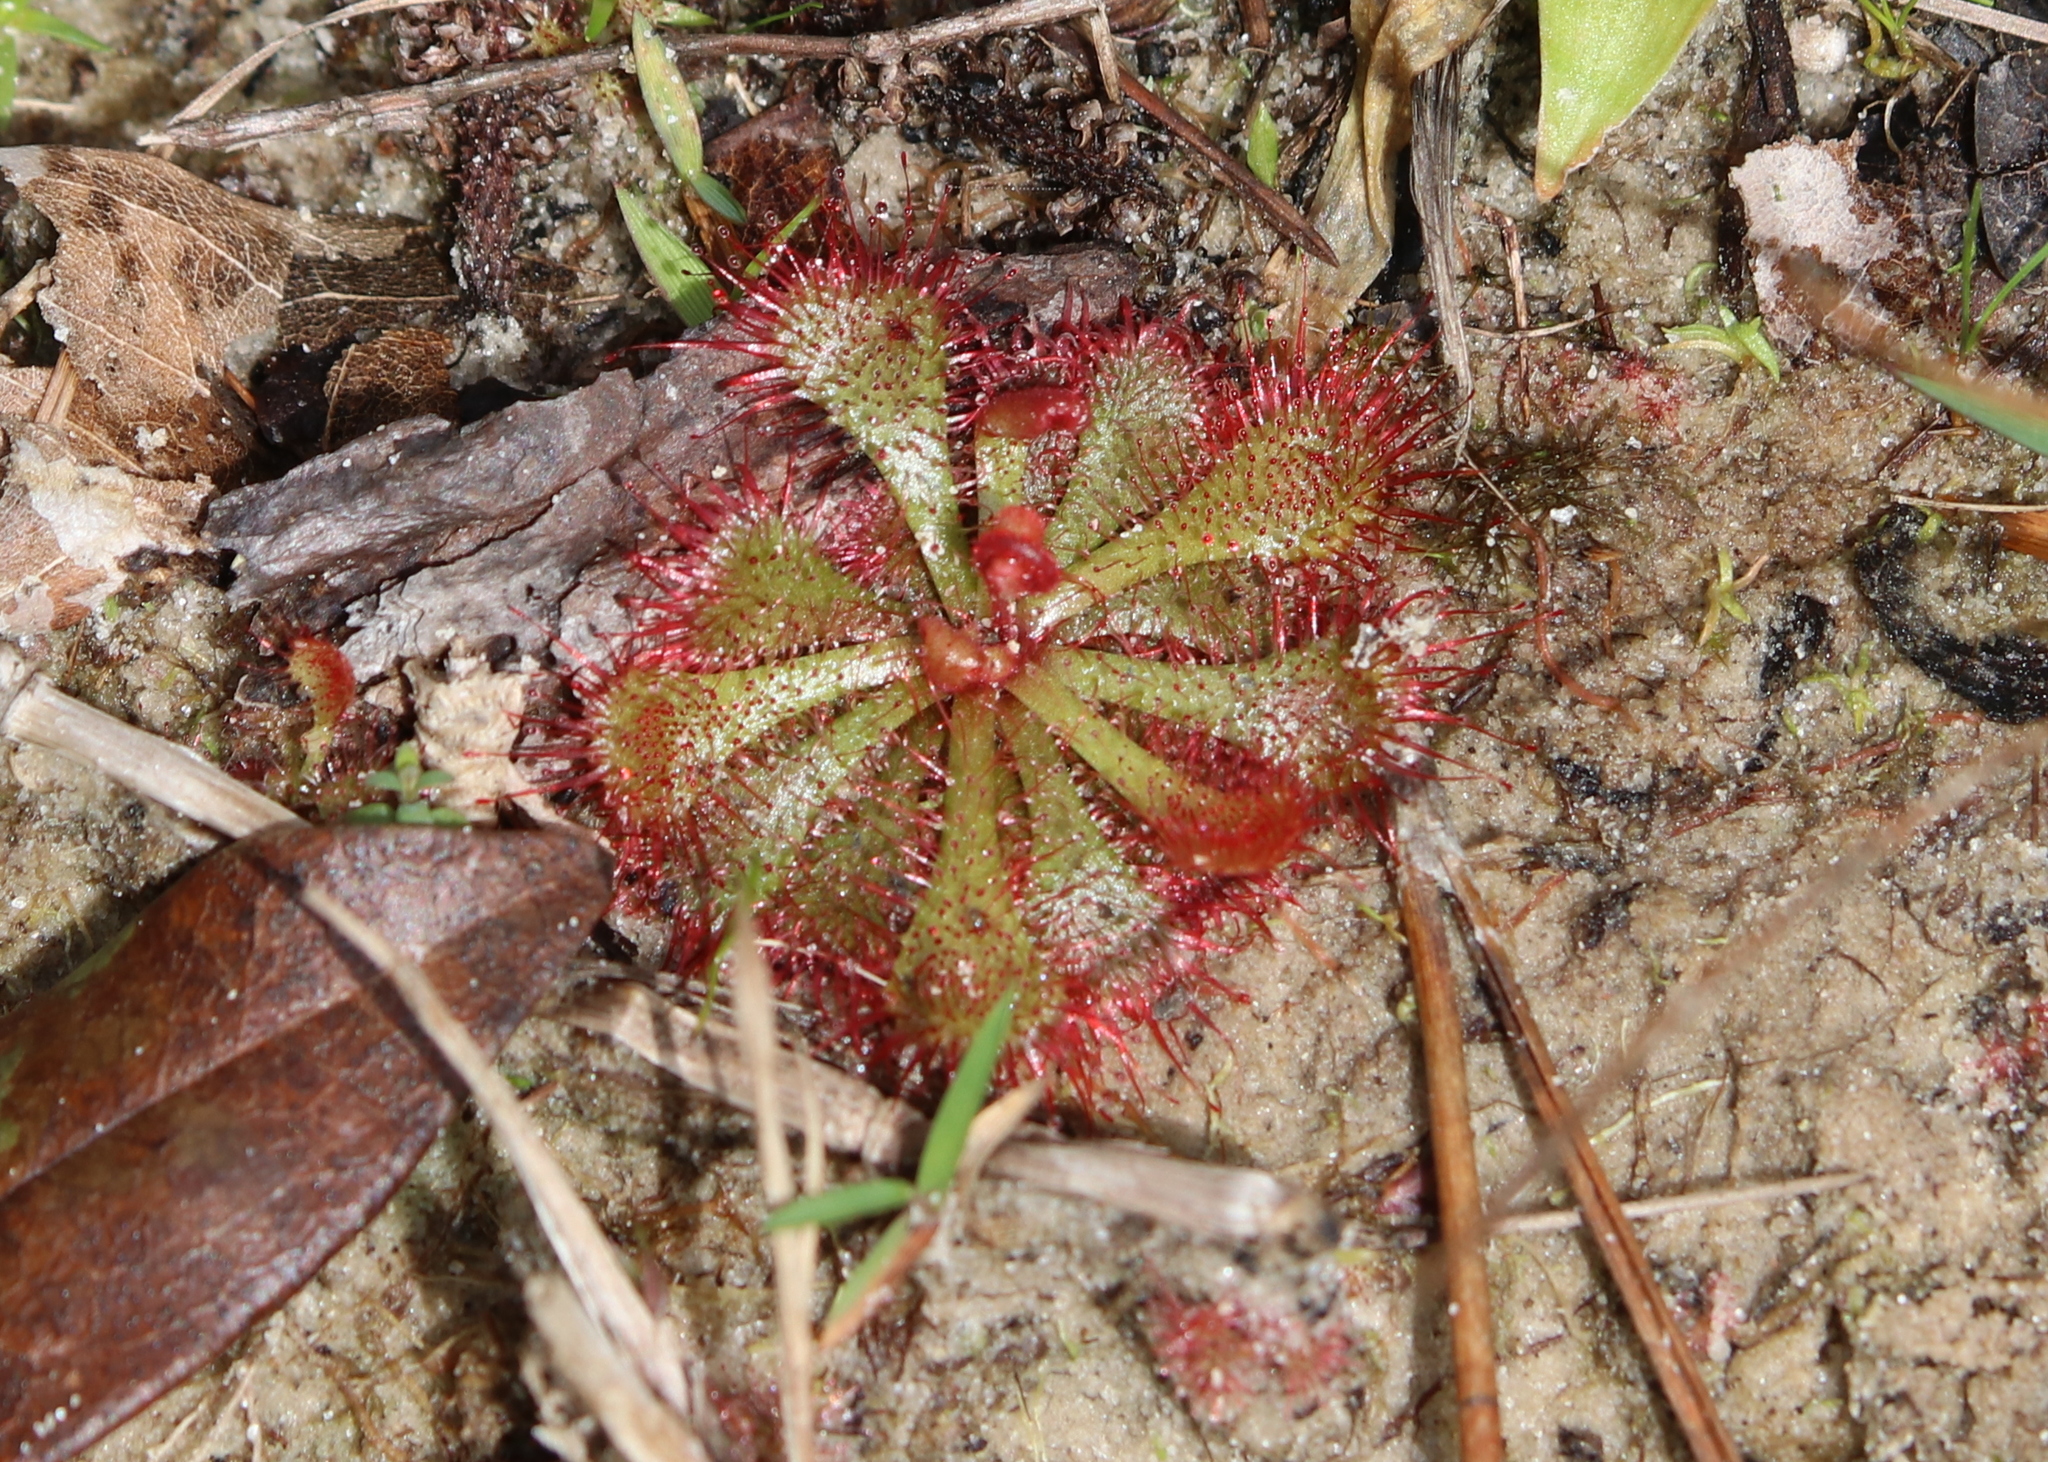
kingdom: Plantae
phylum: Tracheophyta
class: Magnoliopsida
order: Caryophyllales
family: Droseraceae
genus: Drosera
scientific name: Drosera brevifolia
